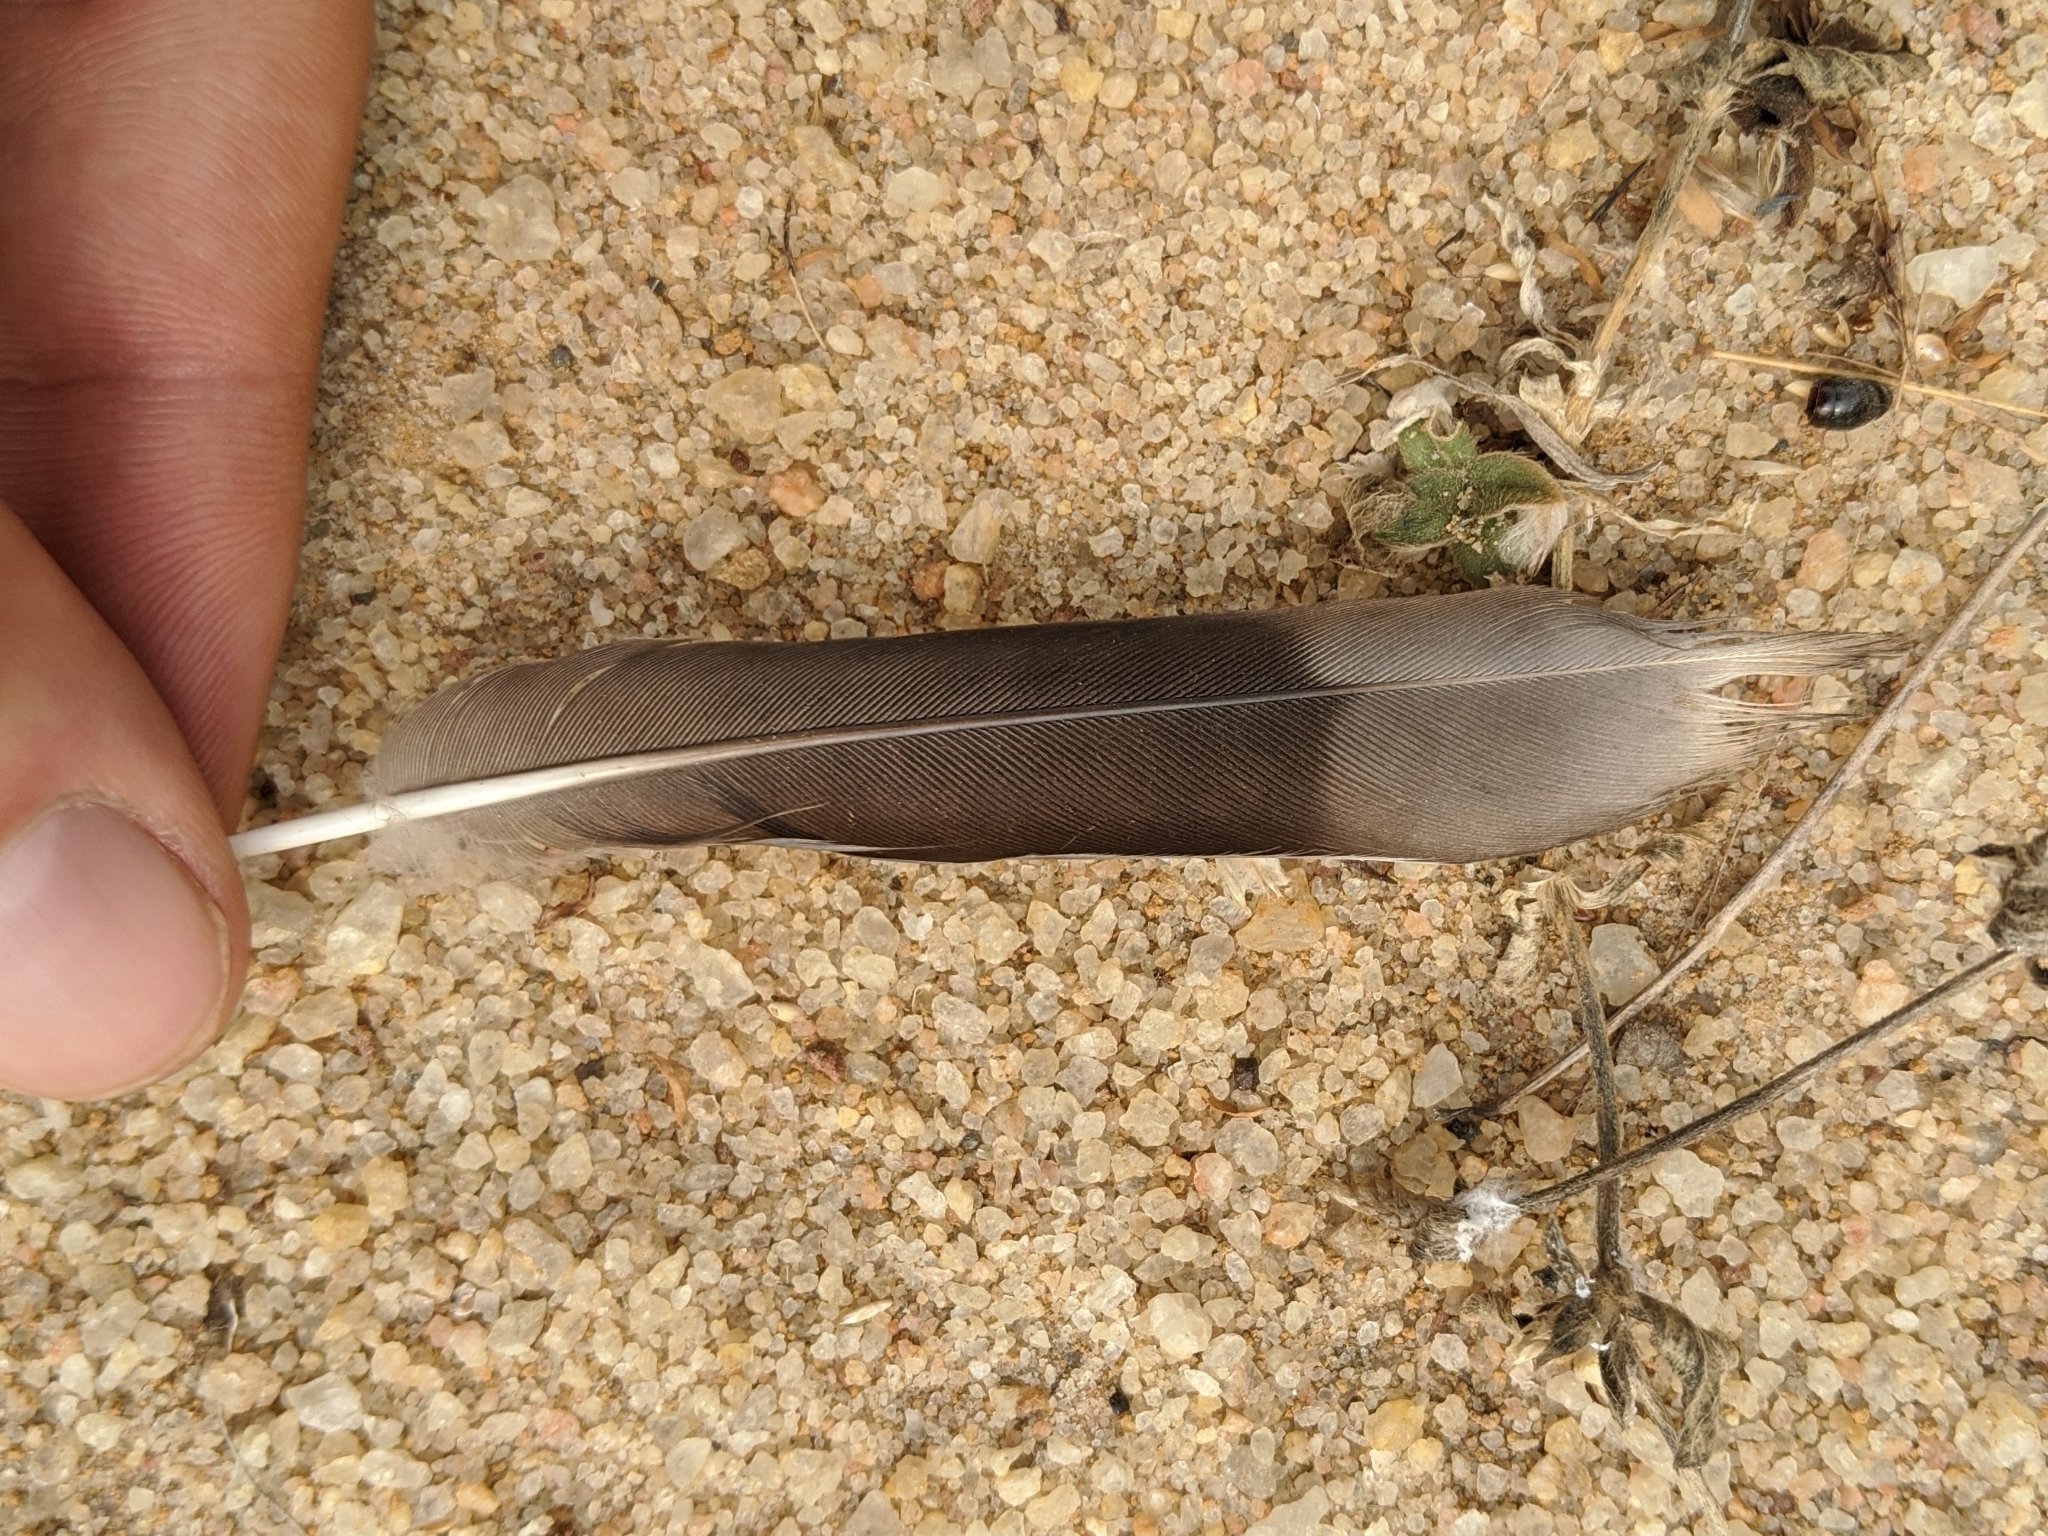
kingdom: Animalia
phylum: Chordata
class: Aves
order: Columbiformes
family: Columbidae
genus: Spilopelia
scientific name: Spilopelia senegalensis
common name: Laughing dove
